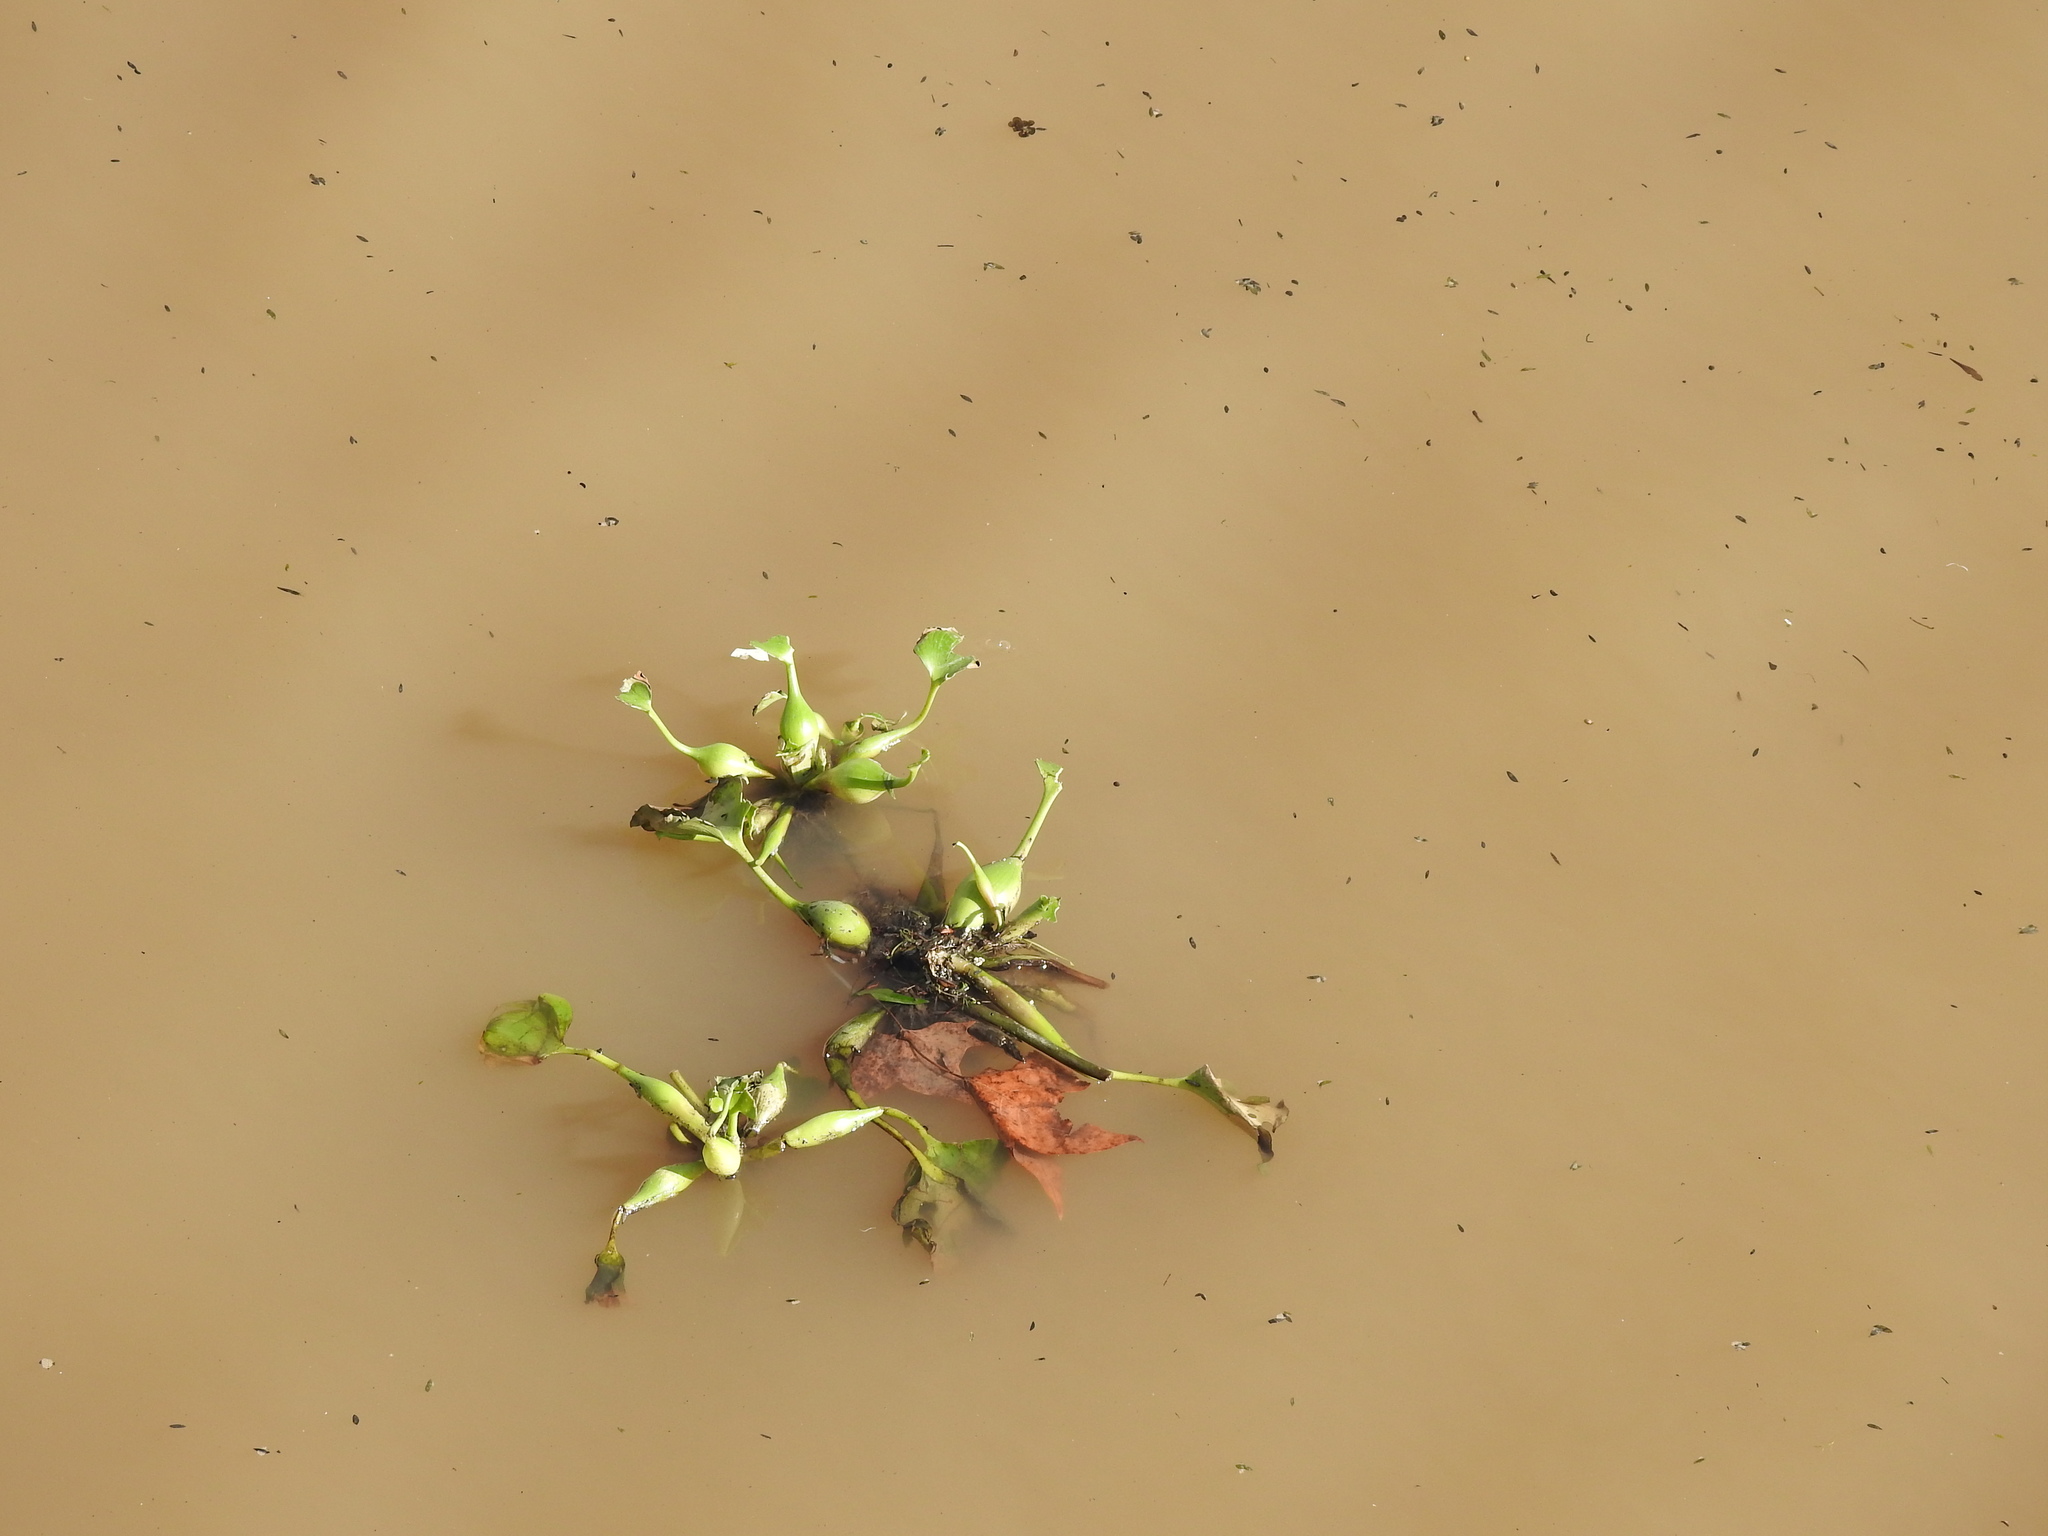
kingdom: Plantae
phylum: Tracheophyta
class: Liliopsida
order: Commelinales
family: Pontederiaceae
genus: Pontederia
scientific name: Pontederia crassipes
